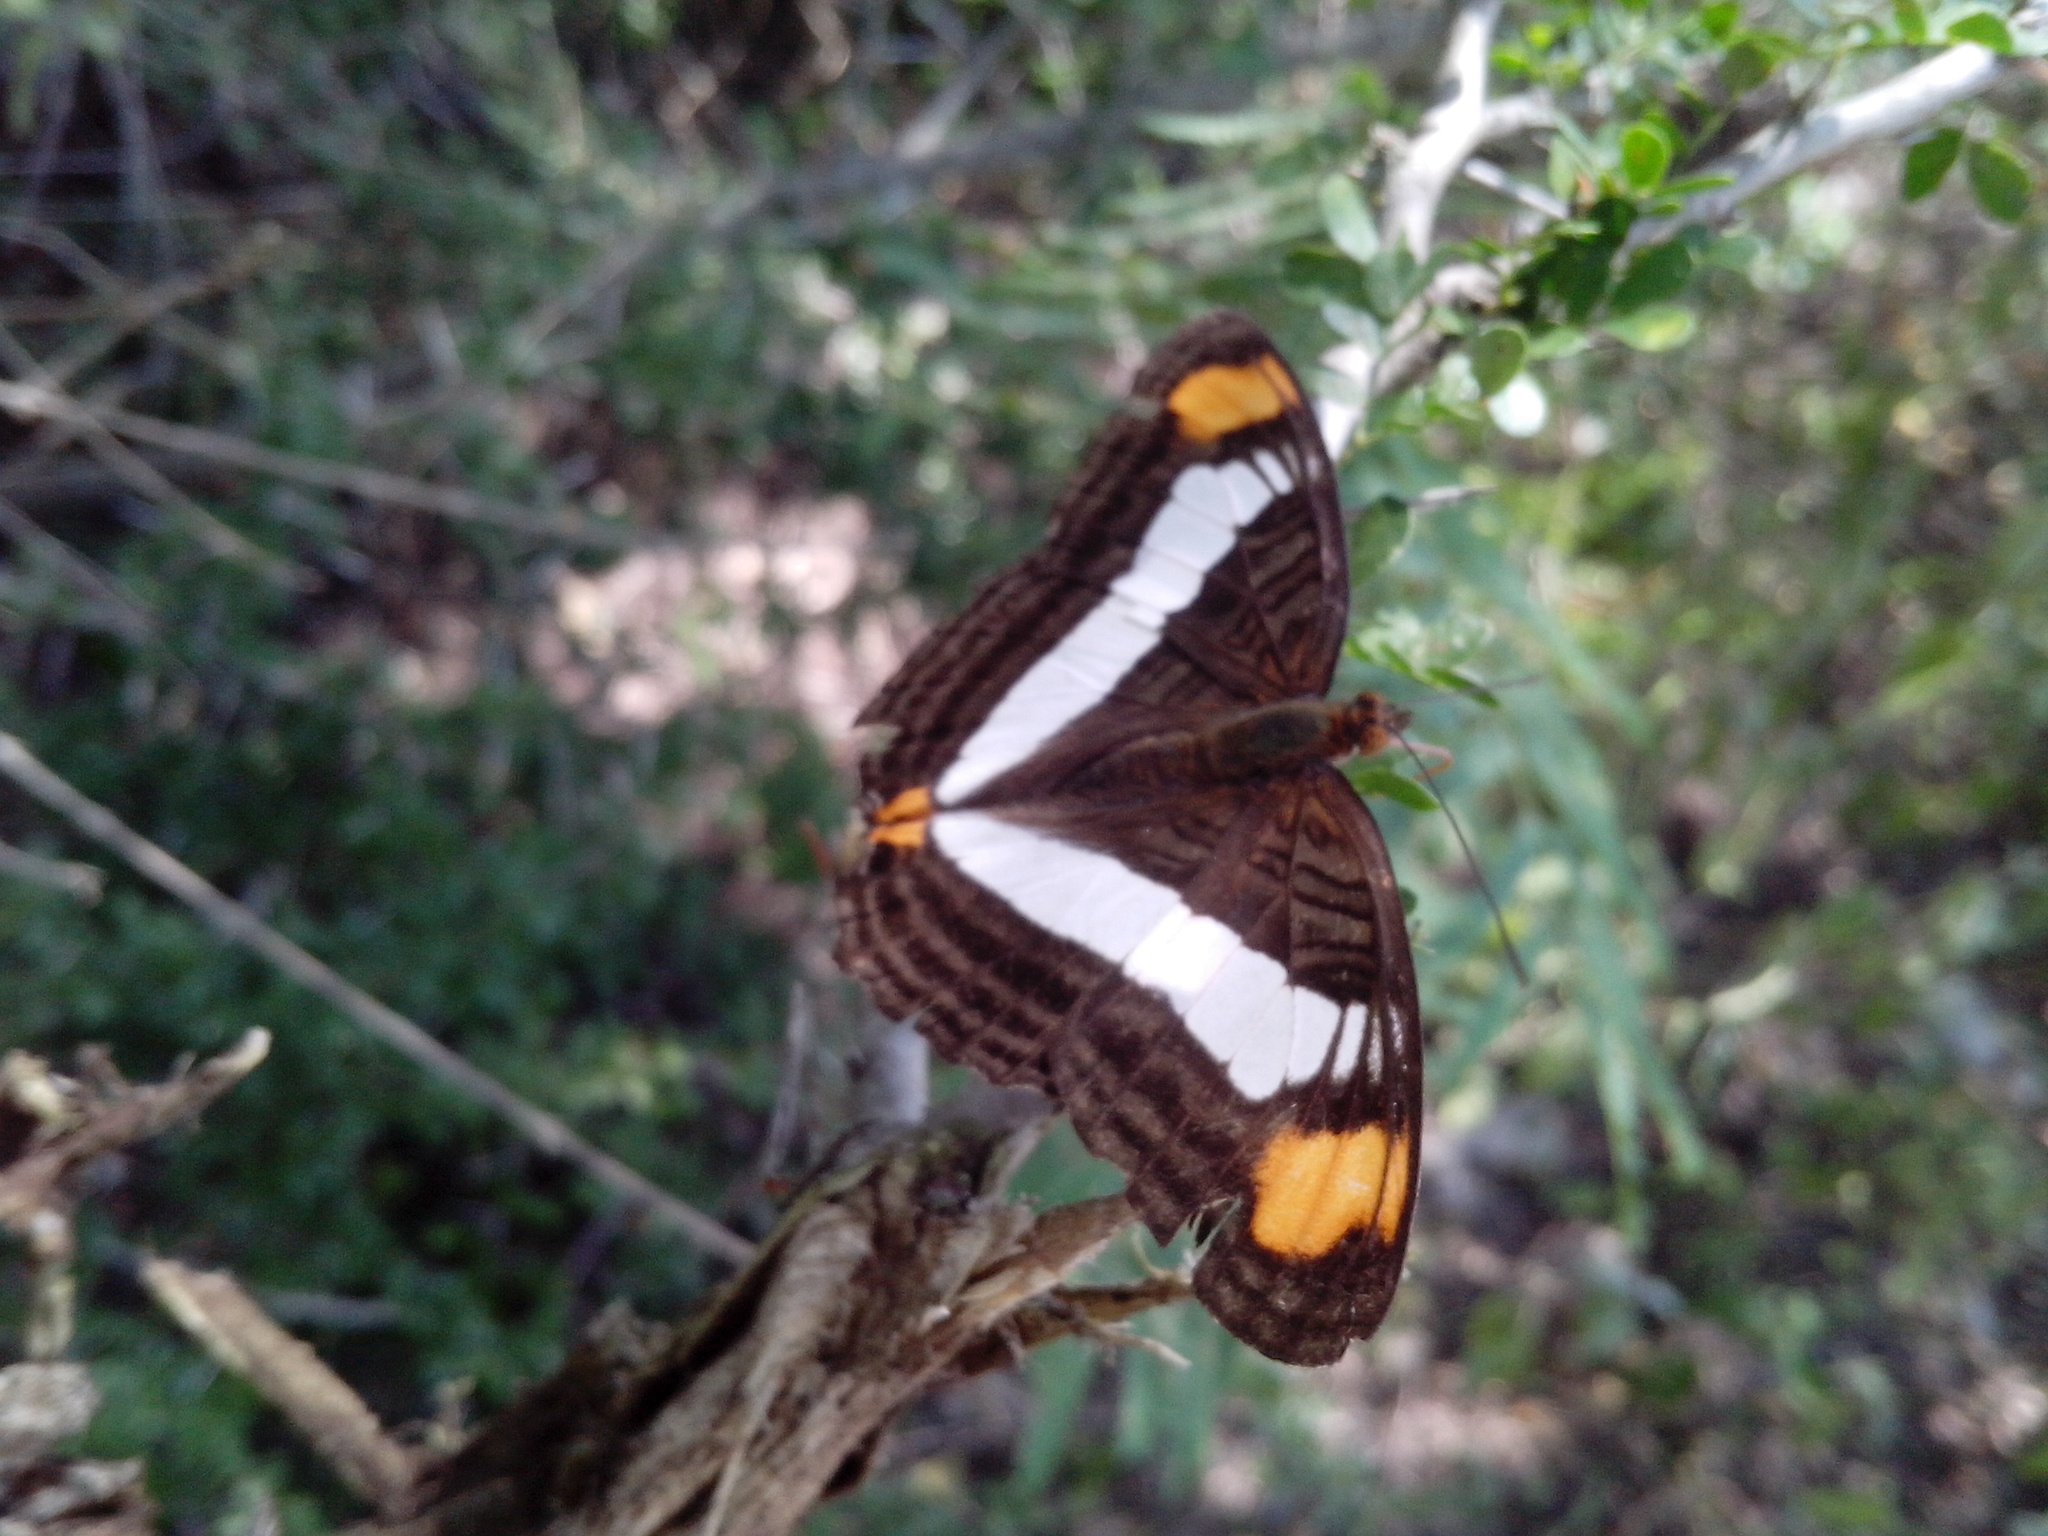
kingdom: Animalia
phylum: Arthropoda
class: Insecta
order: Lepidoptera
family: Nymphalidae
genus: Limenitis
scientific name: Limenitis Adelpha basiloides
